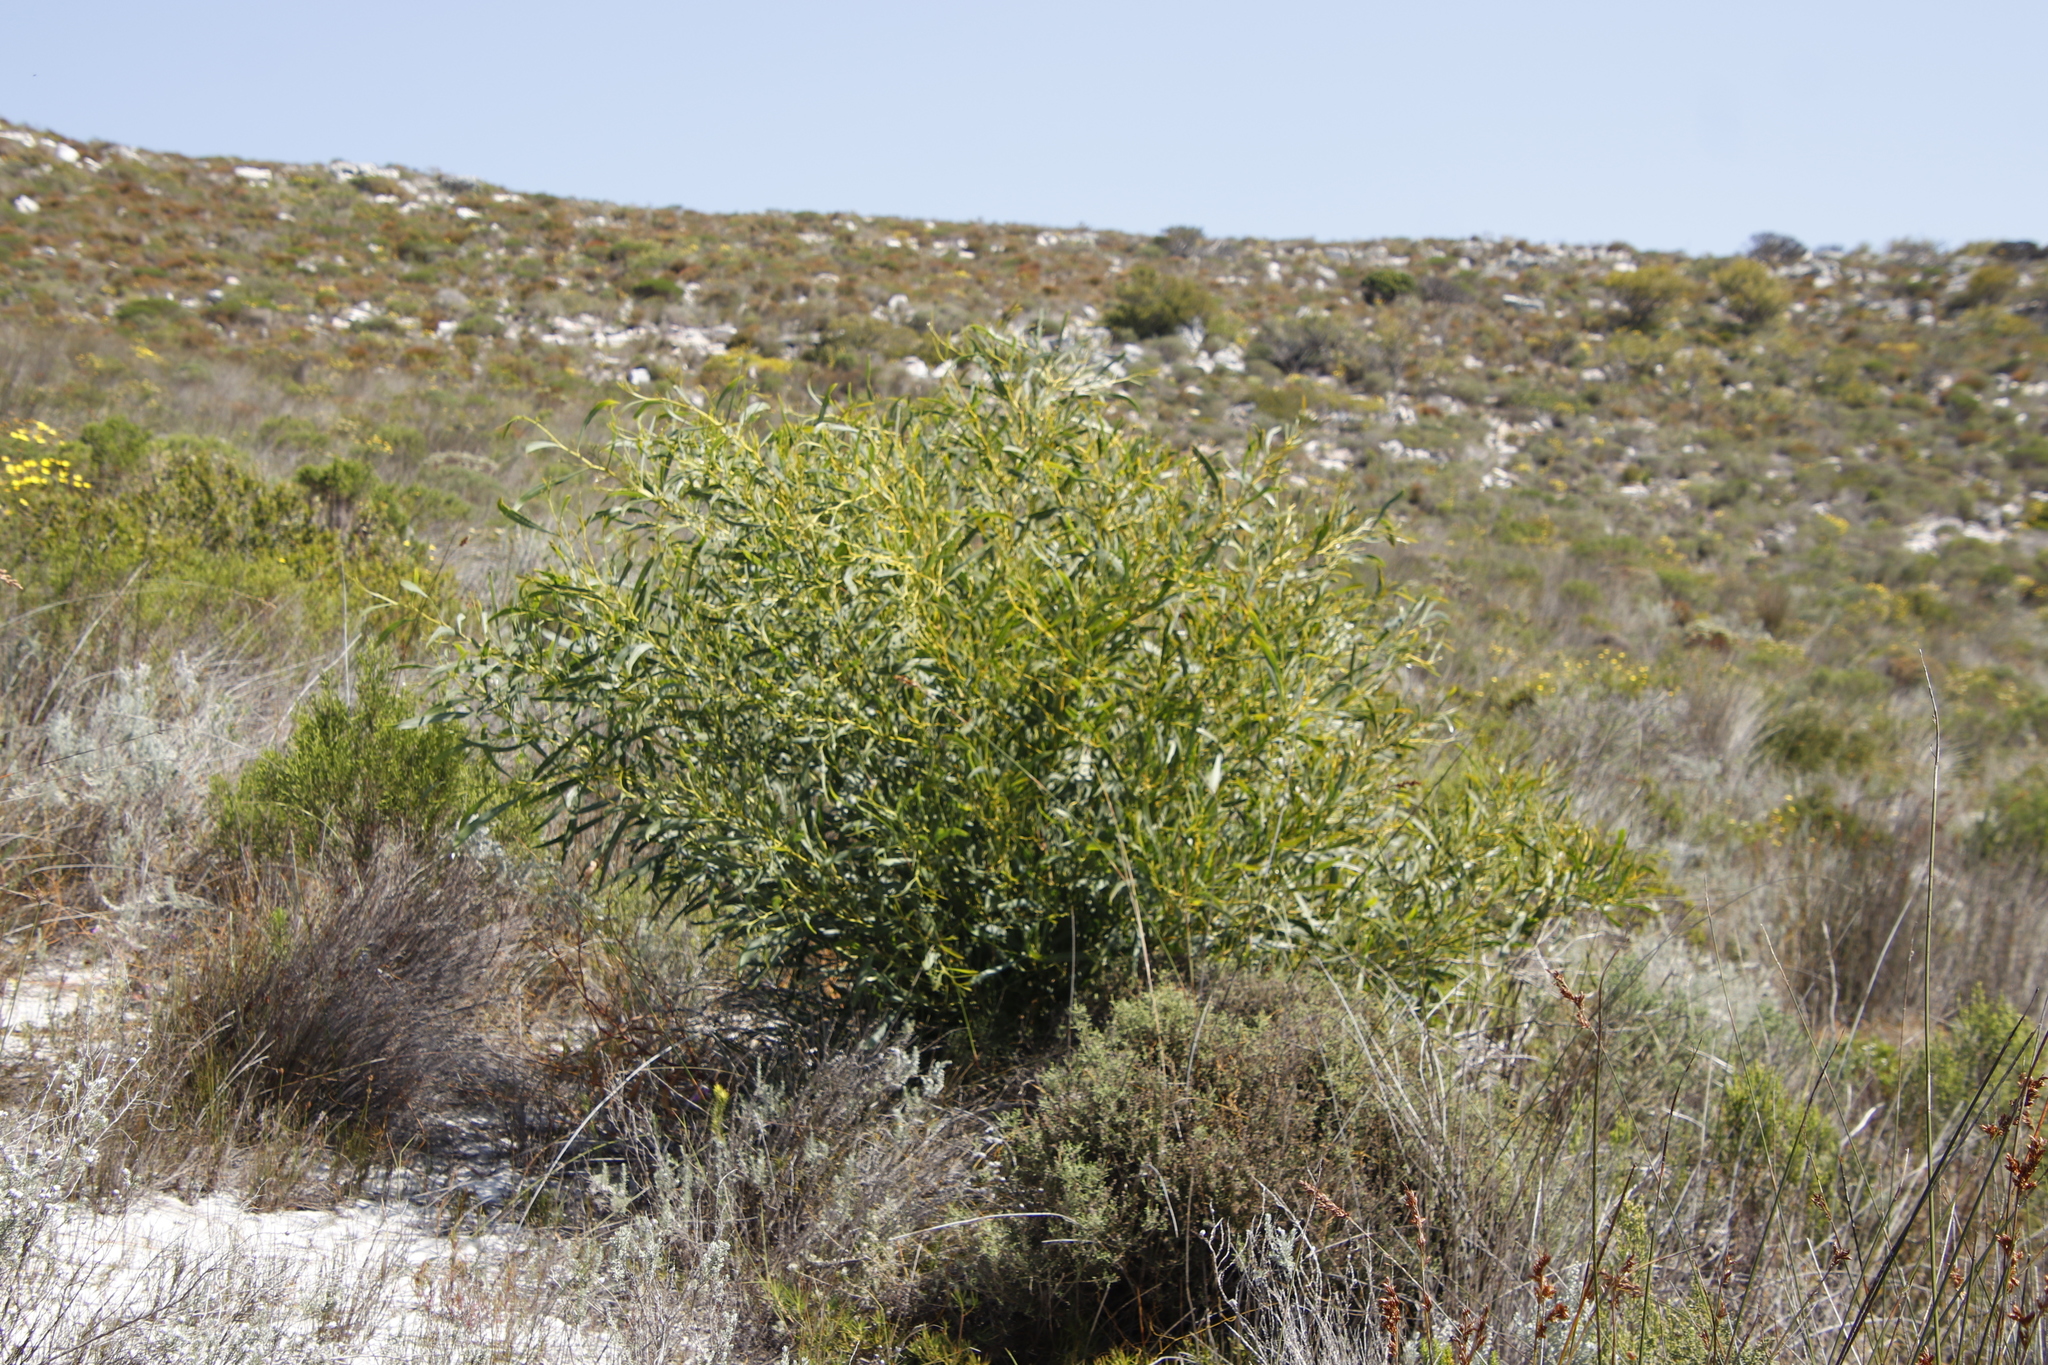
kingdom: Plantae
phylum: Tracheophyta
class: Magnoliopsida
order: Fabales
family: Fabaceae
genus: Acacia
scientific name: Acacia saligna
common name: Orange wattle
